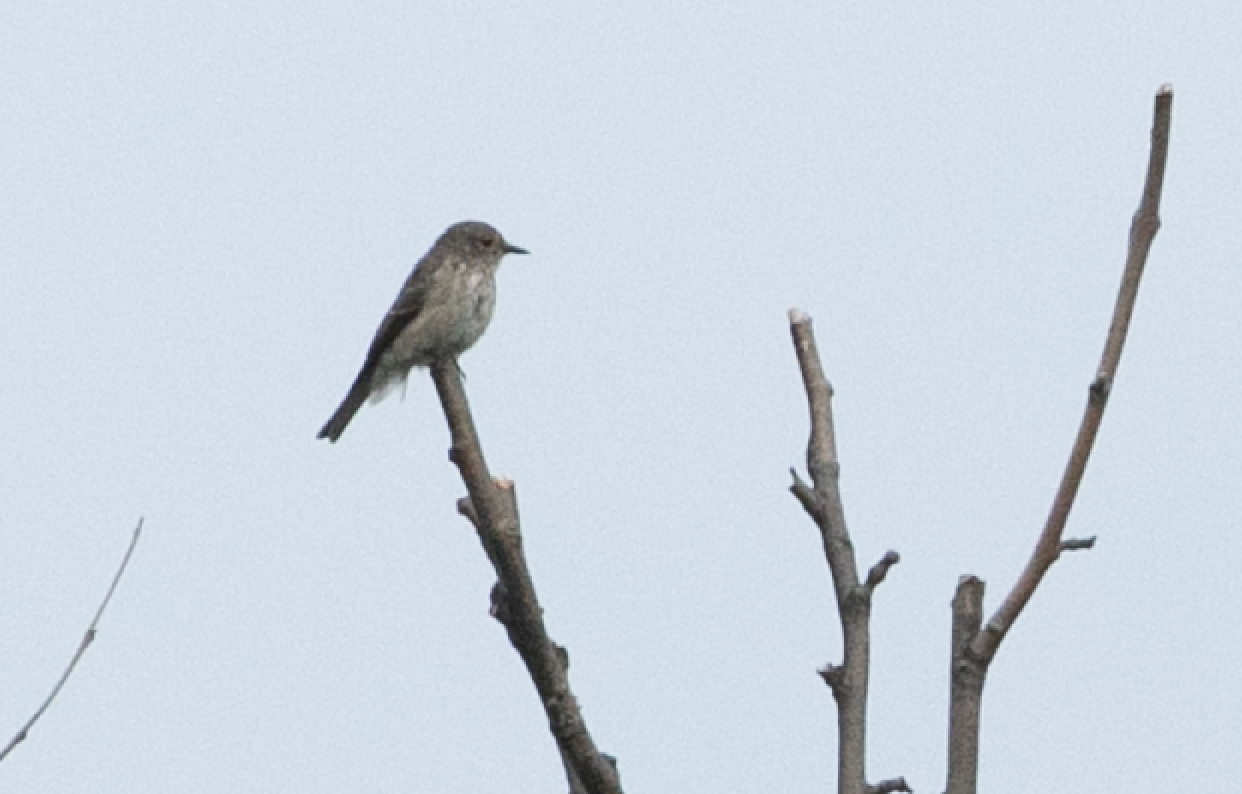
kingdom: Animalia
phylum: Chordata
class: Aves
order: Passeriformes
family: Muscicapidae
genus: Muscicapa
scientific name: Muscicapa striata
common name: Spotted flycatcher
